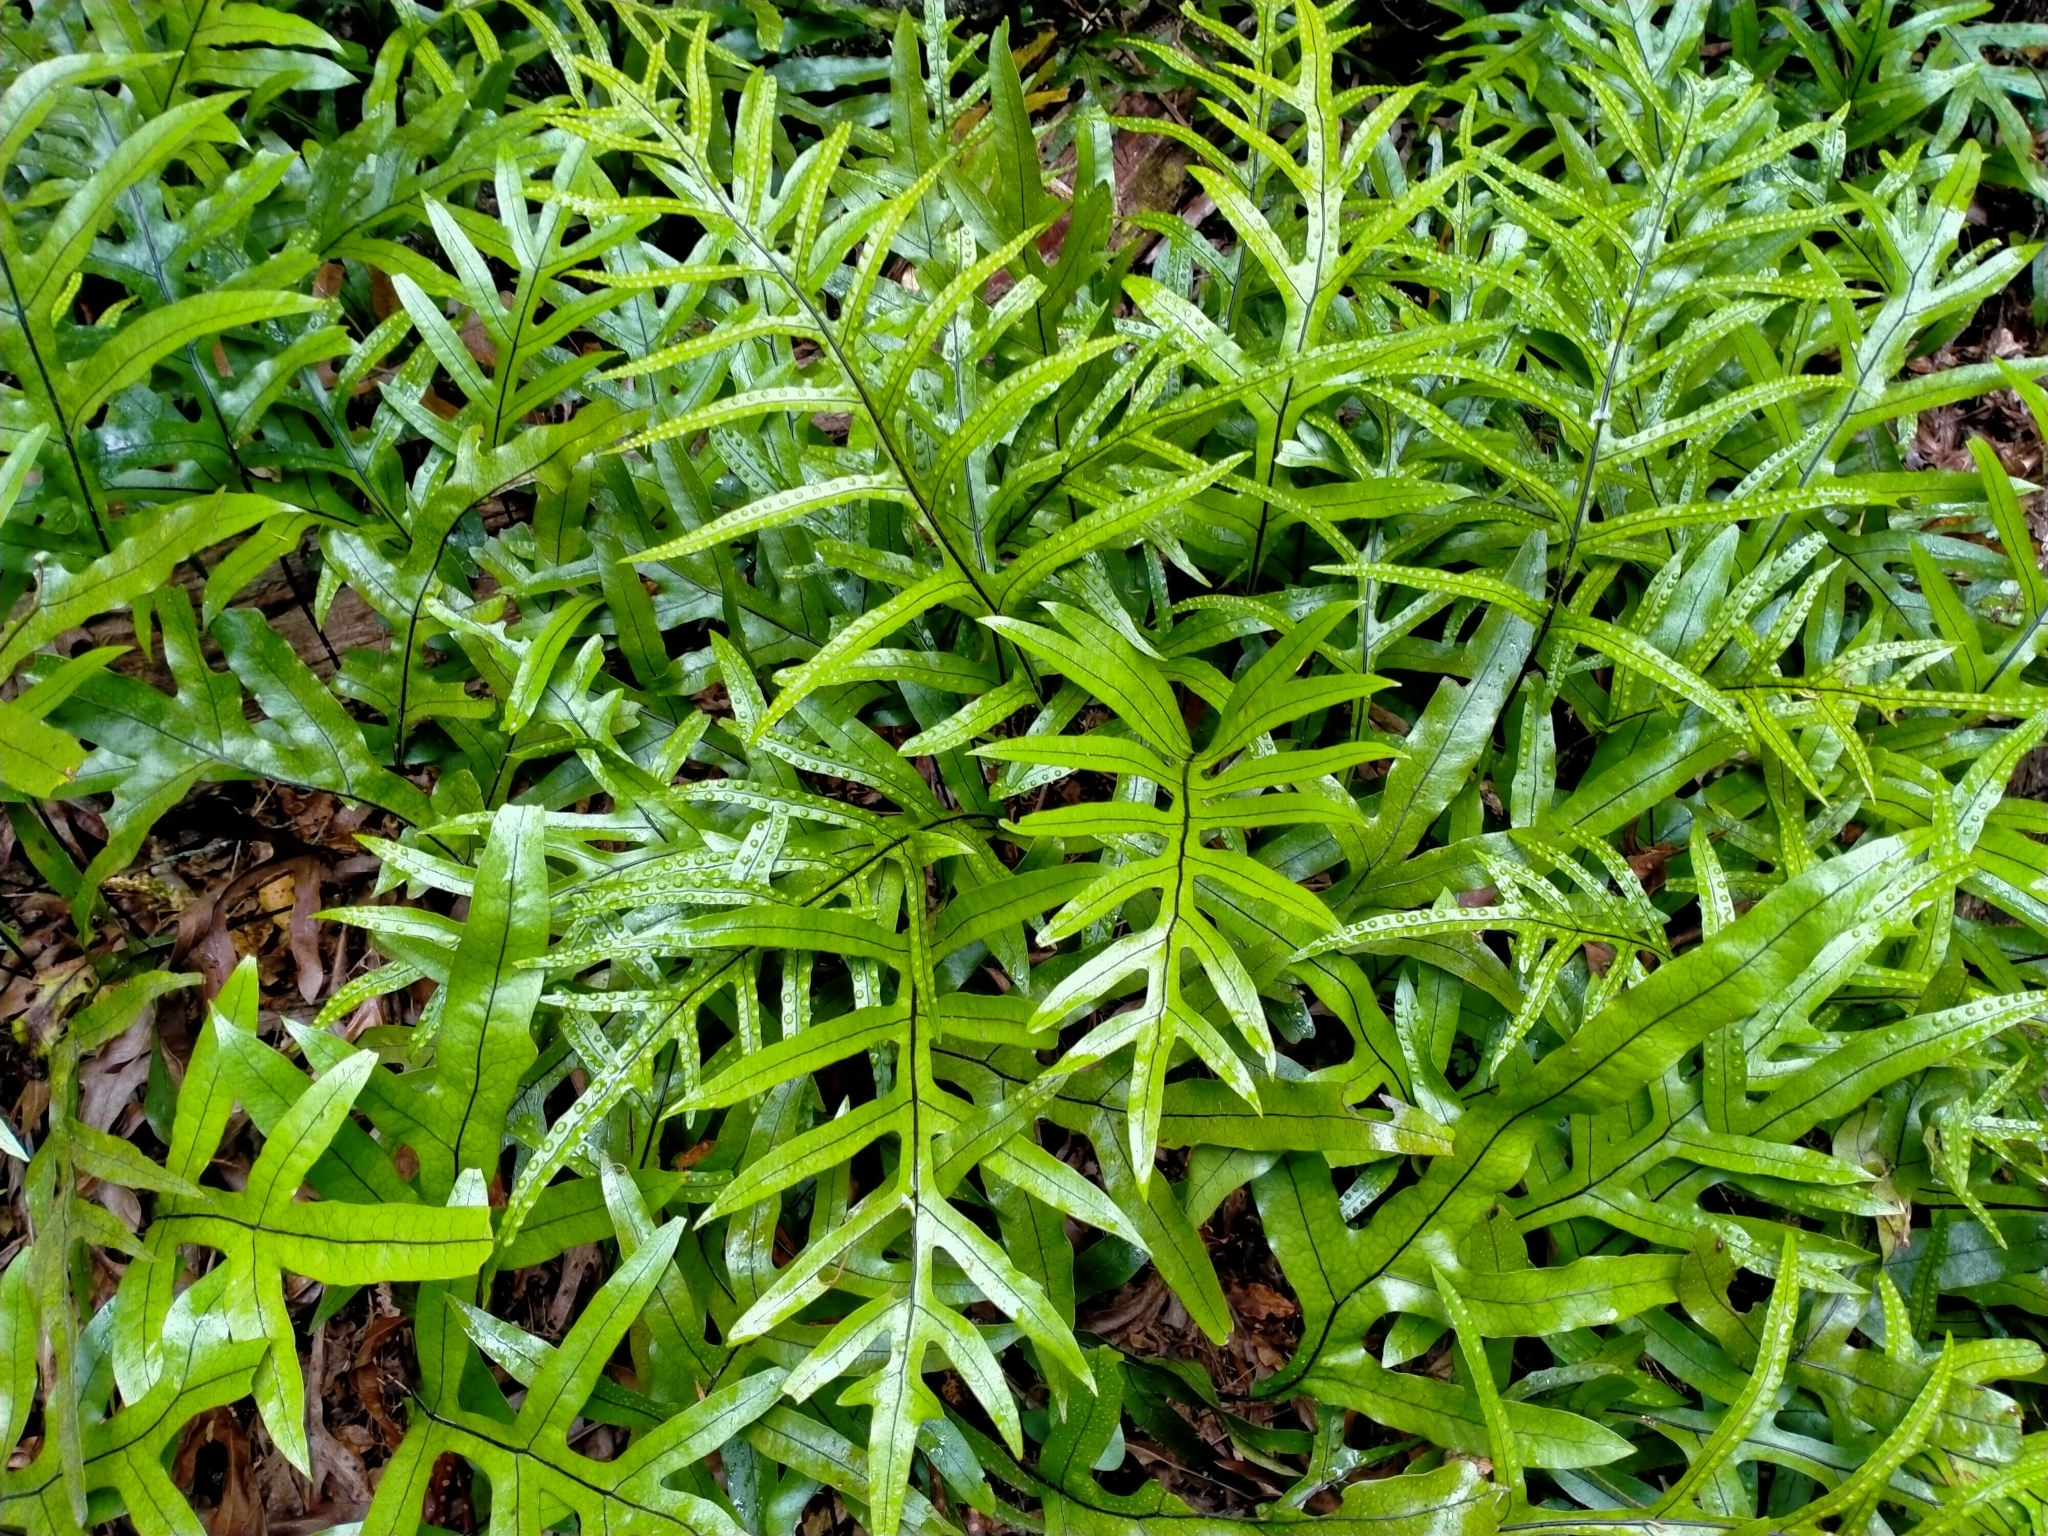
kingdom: Plantae
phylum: Tracheophyta
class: Polypodiopsida
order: Polypodiales
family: Polypodiaceae
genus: Lecanopteris
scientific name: Lecanopteris pustulata
